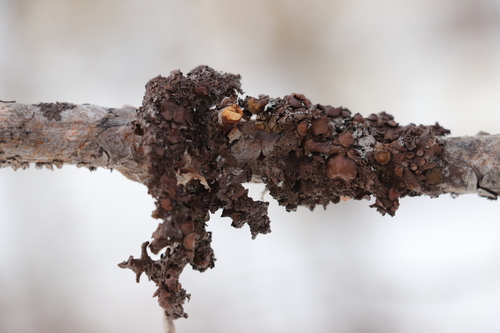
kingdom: Fungi
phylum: Ascomycota
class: Lecanoromycetes
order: Lecanorales
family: Parmeliaceae
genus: Melanohalea
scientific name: Melanohalea olivacea
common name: Spotted camouflage lichen
